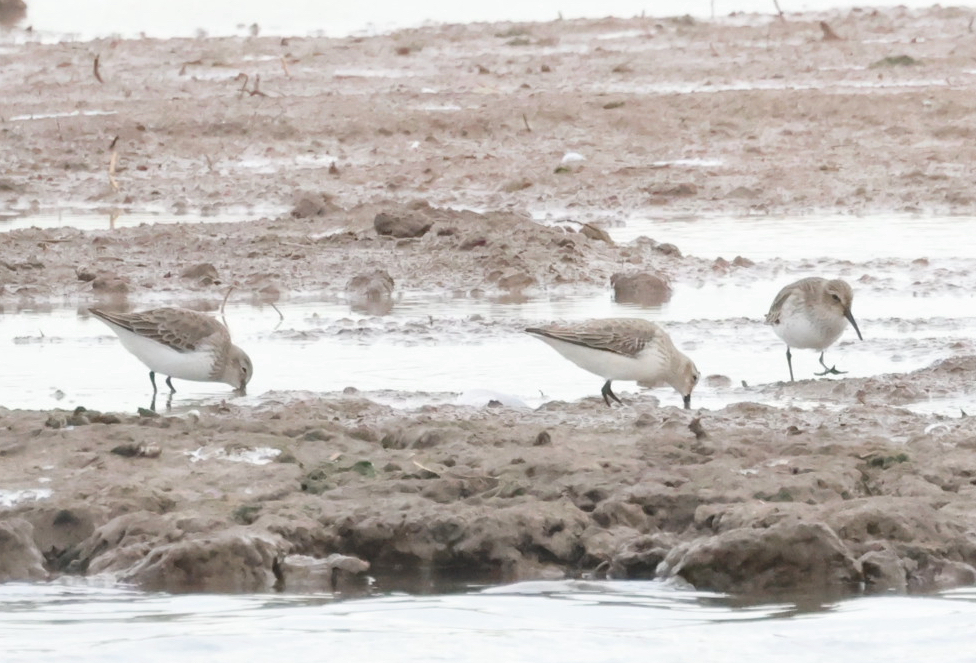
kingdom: Animalia
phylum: Chordata
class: Aves
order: Charadriiformes
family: Scolopacidae
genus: Calidris
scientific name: Calidris alpina
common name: Dunlin
